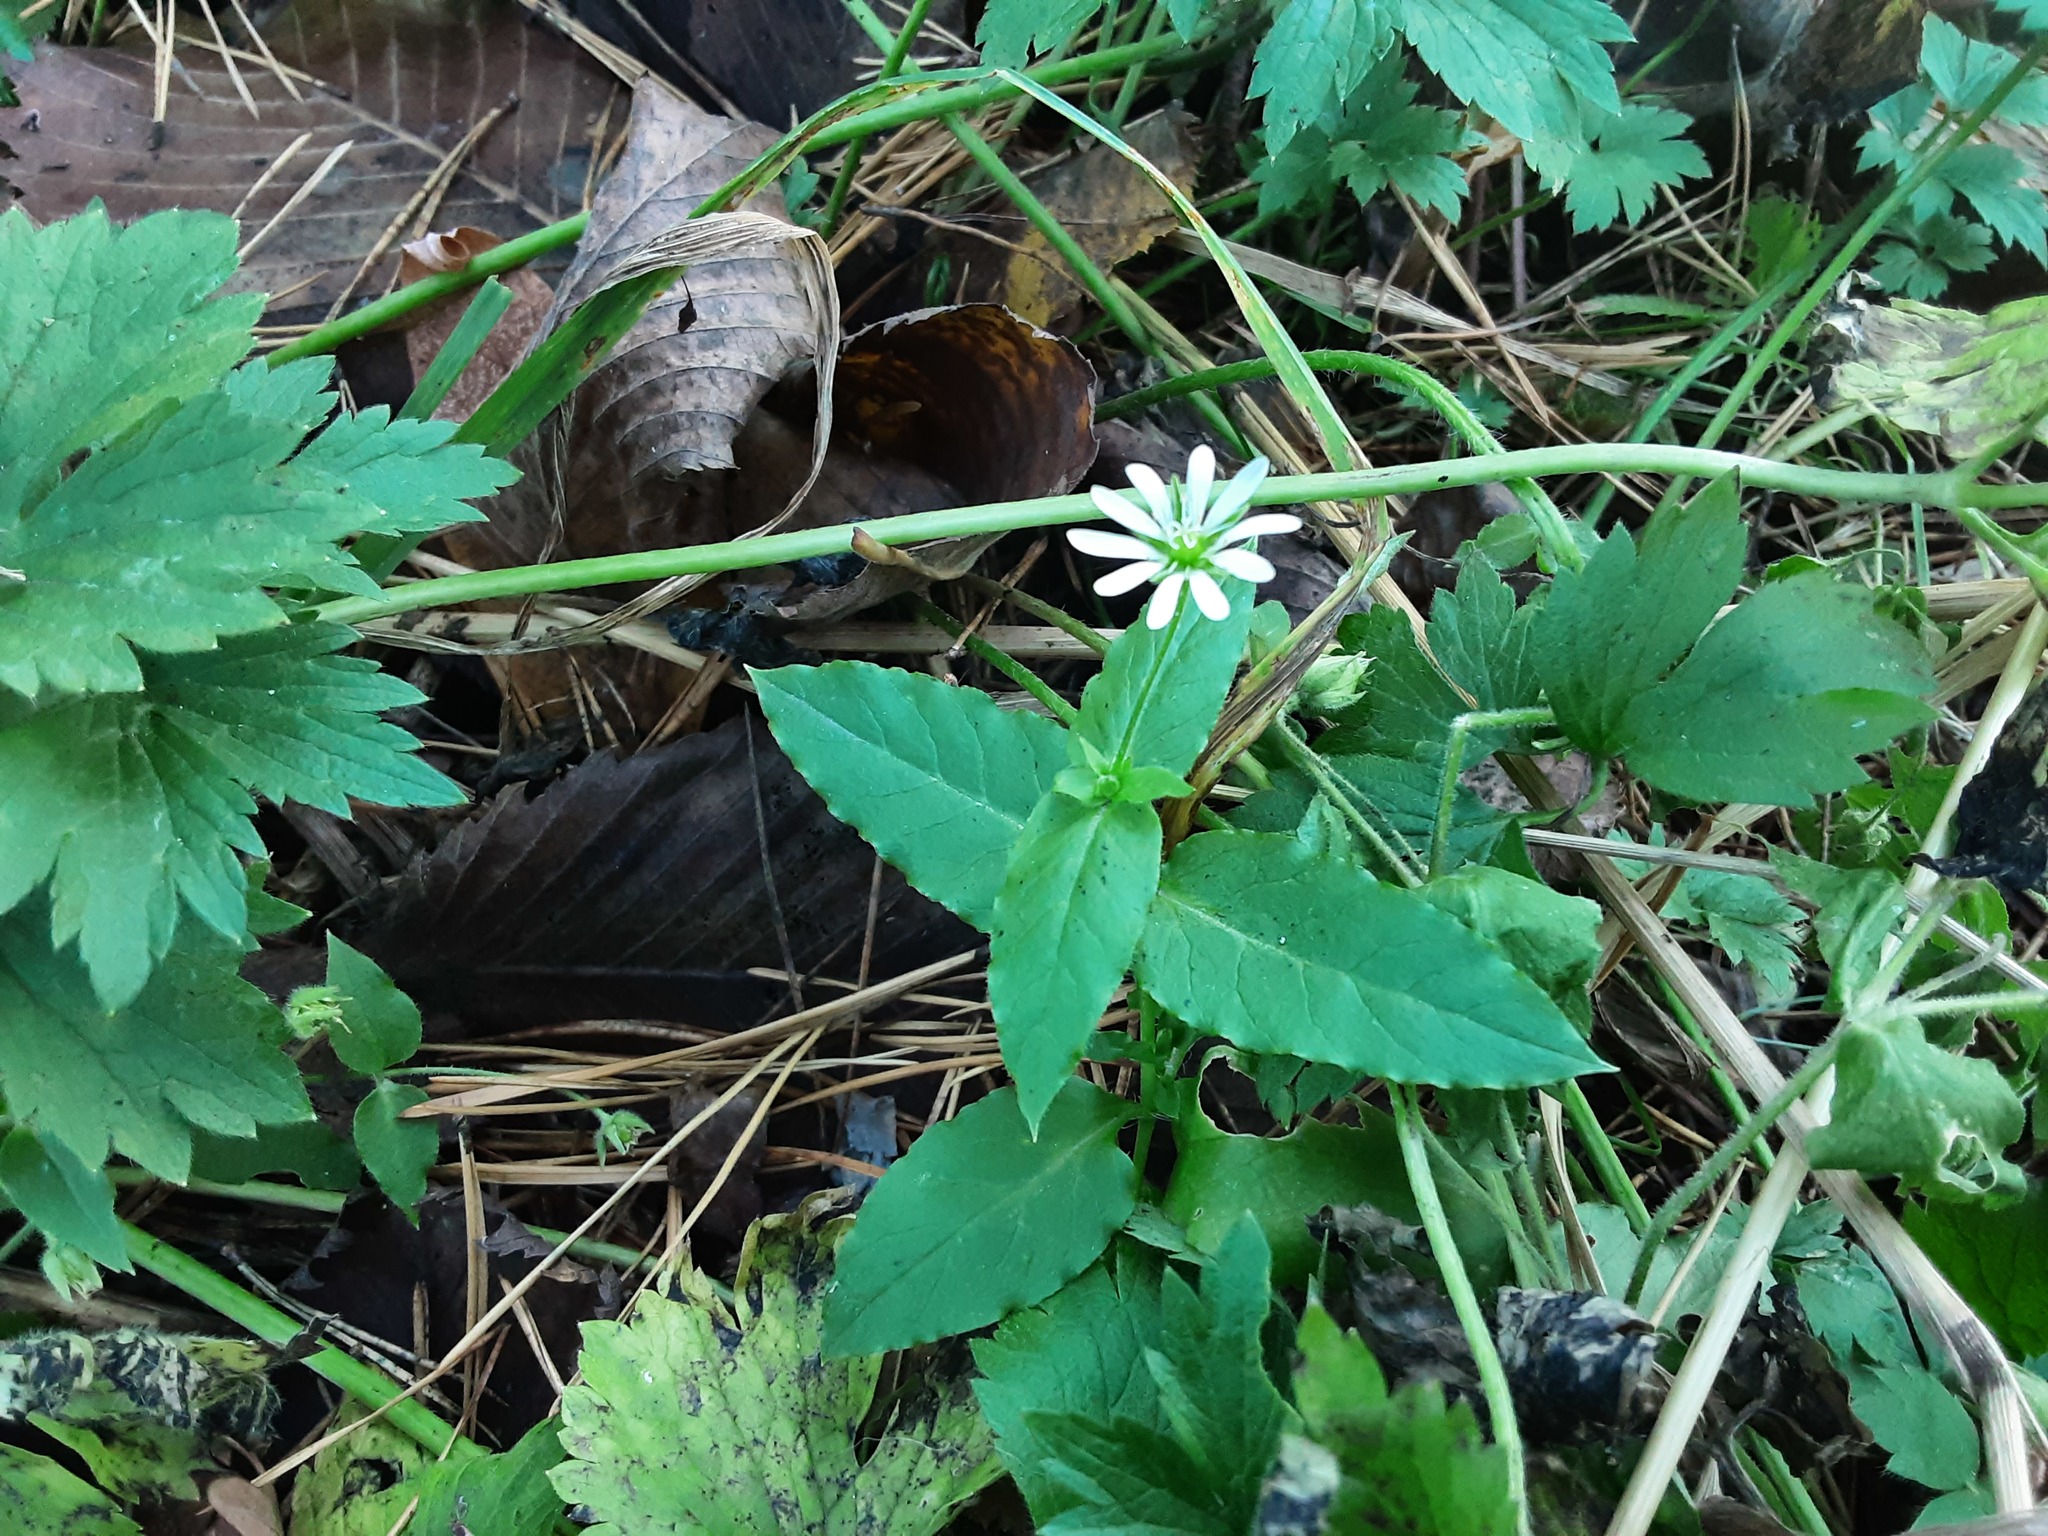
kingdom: Plantae
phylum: Tracheophyta
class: Magnoliopsida
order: Caryophyllales
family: Caryophyllaceae
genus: Stellaria
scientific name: Stellaria aquatica
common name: Water chickweed
